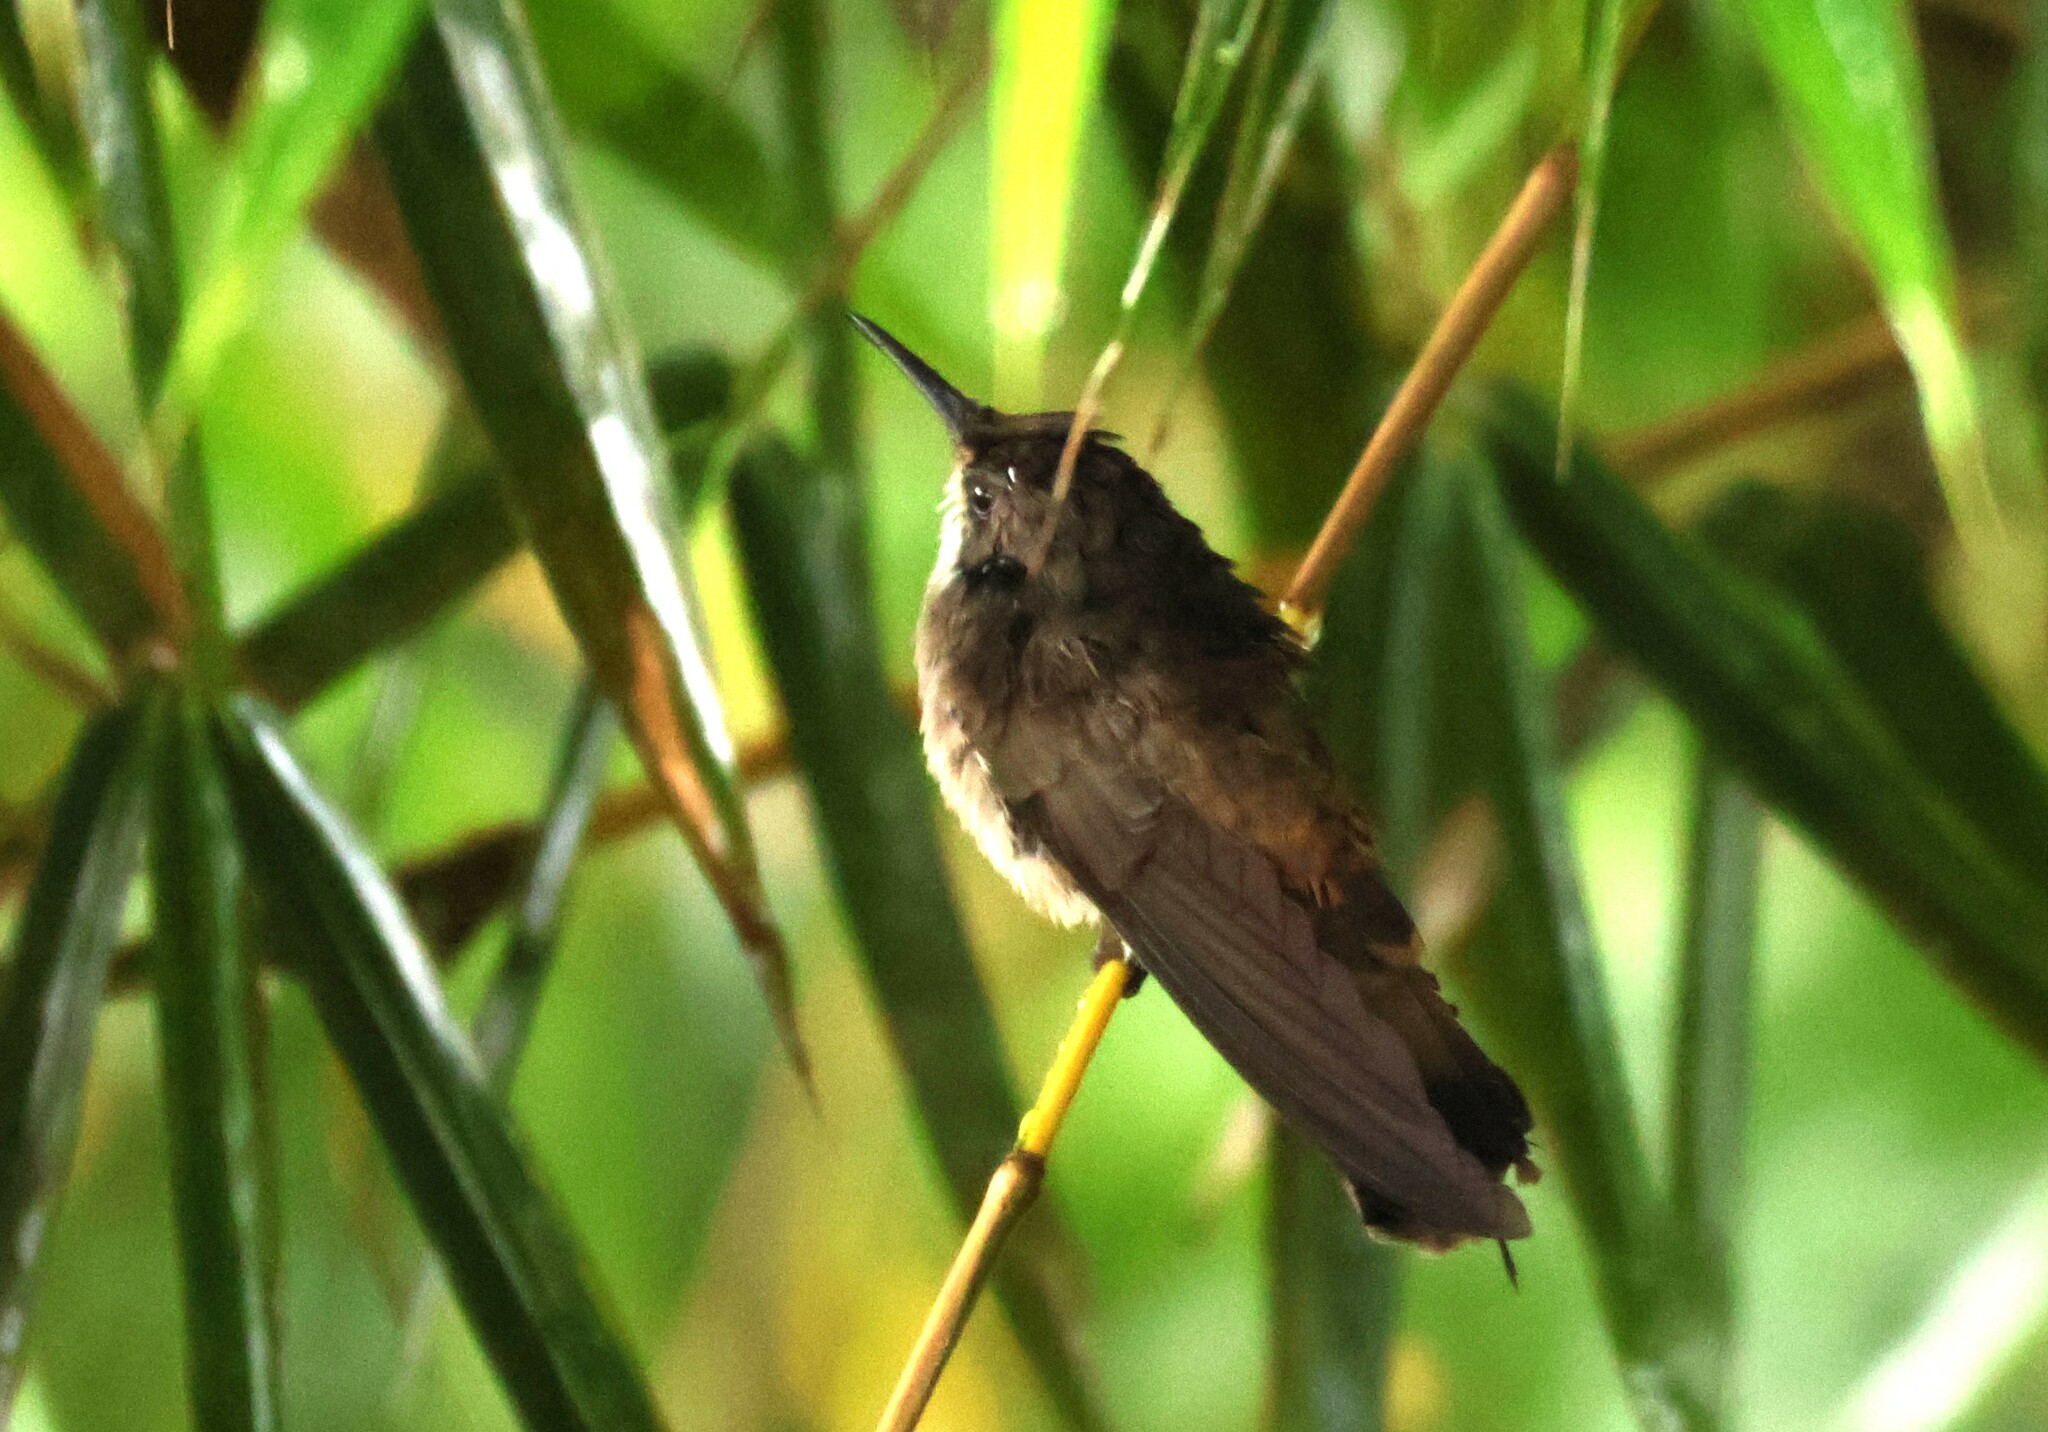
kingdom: Animalia
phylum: Chordata
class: Aves
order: Apodiformes
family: Trochilidae
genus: Colibri
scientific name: Colibri delphinae
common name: Brown violetear
